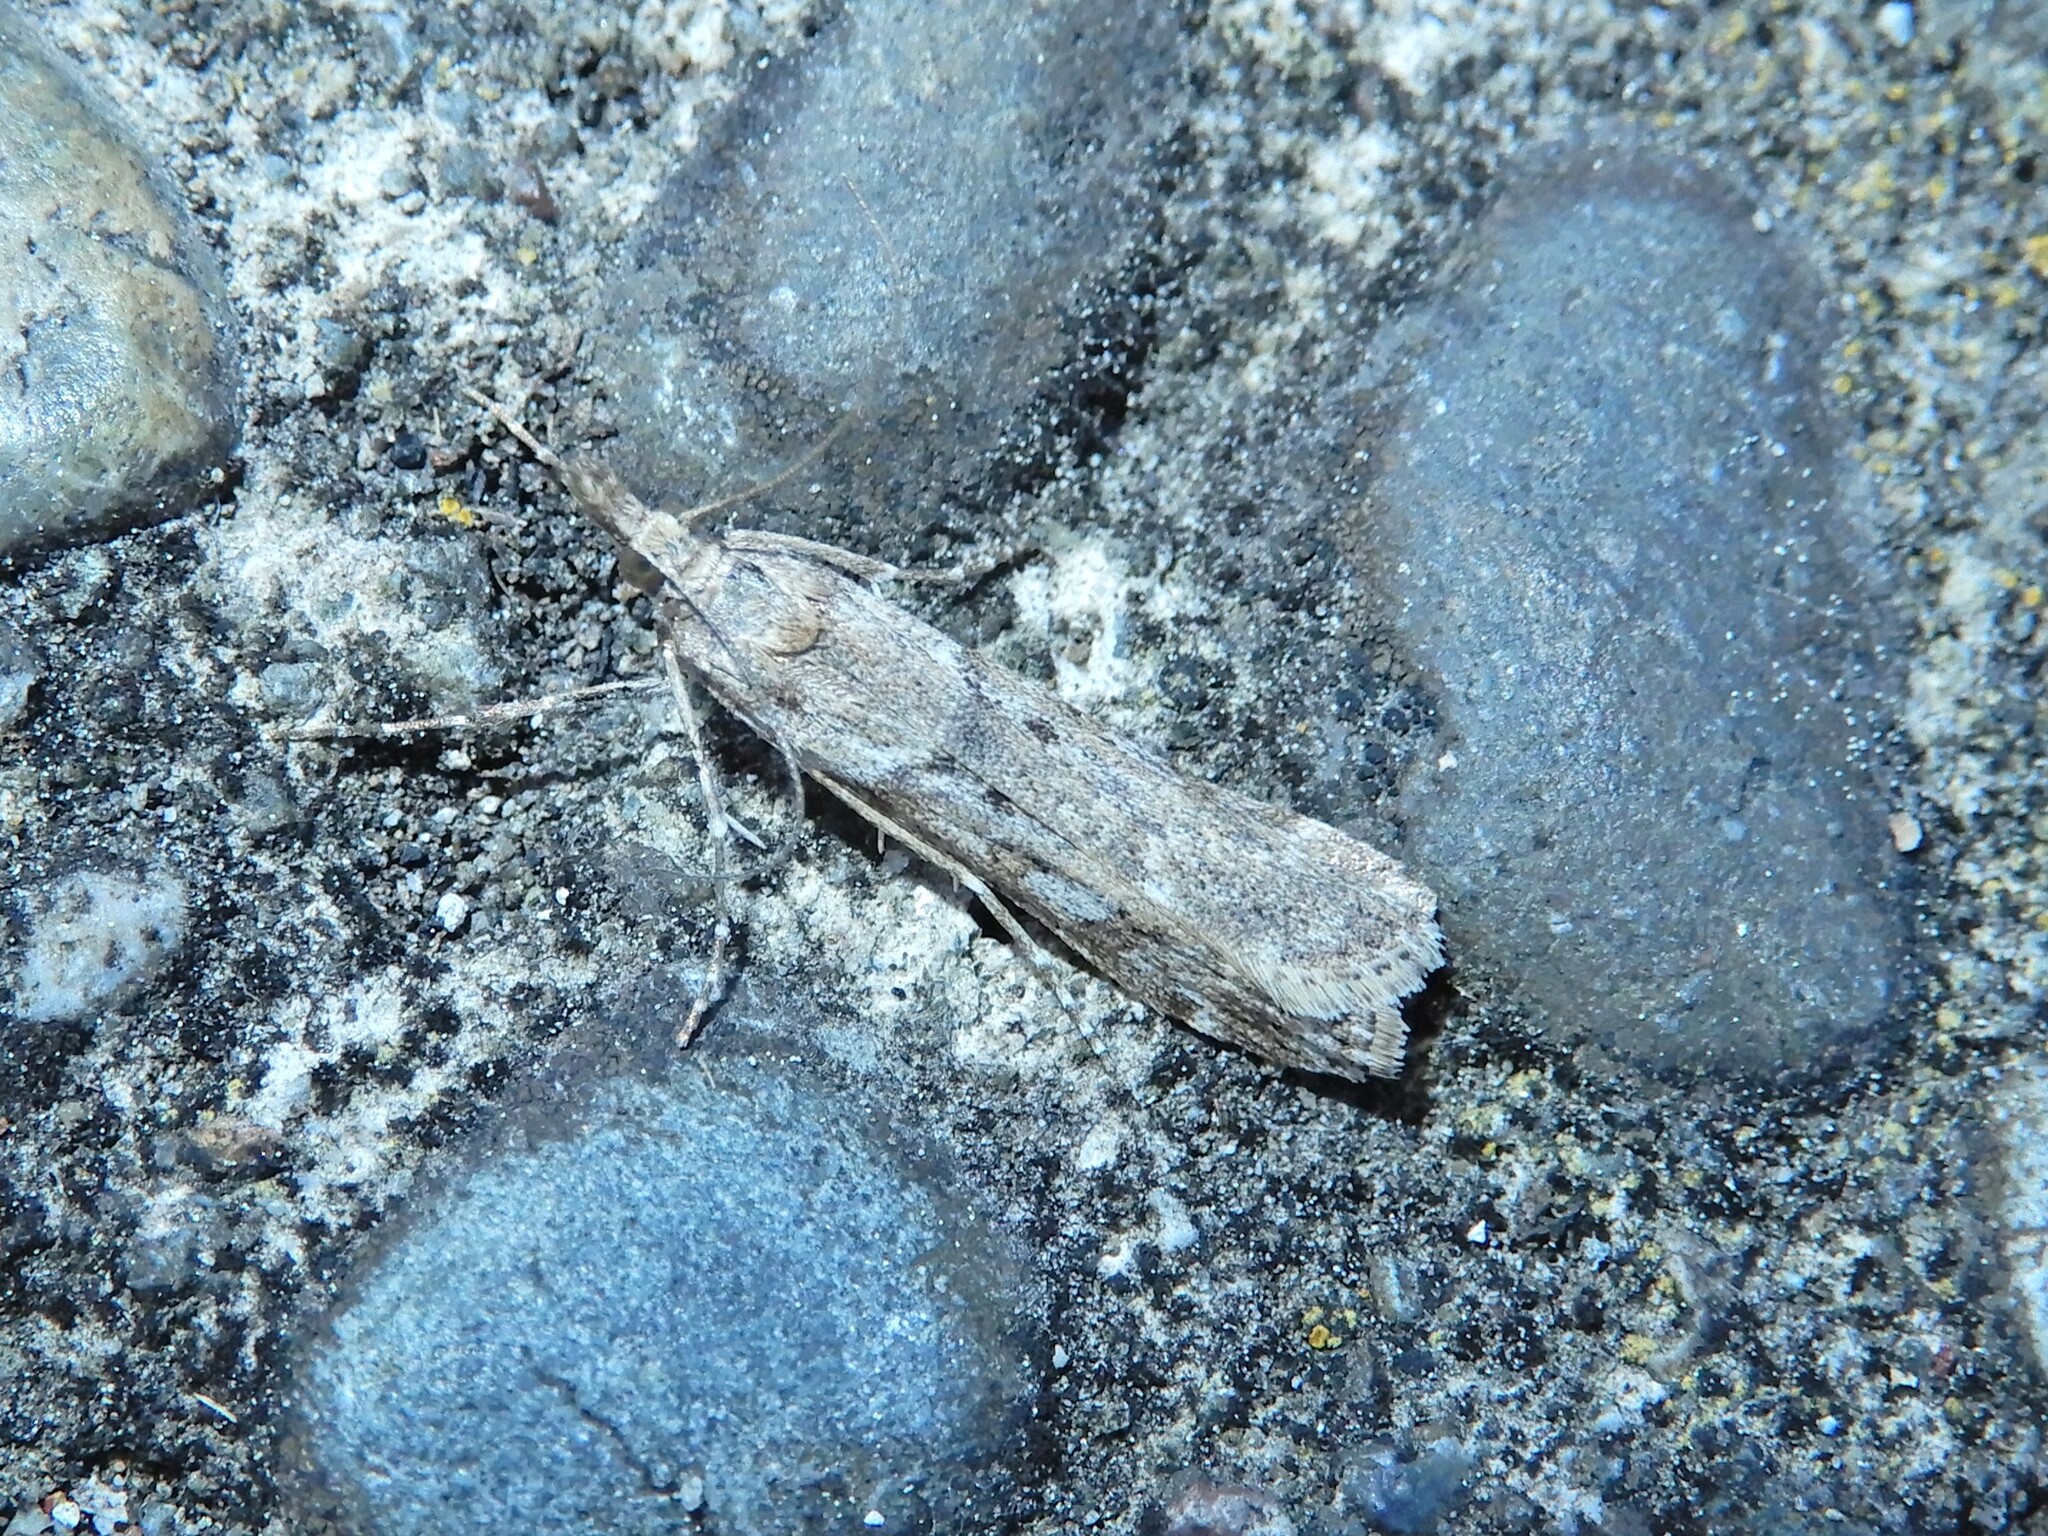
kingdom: Animalia
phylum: Arthropoda
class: Insecta
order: Lepidoptera
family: Crambidae
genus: Eudonia
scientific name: Eudonia leptalea
